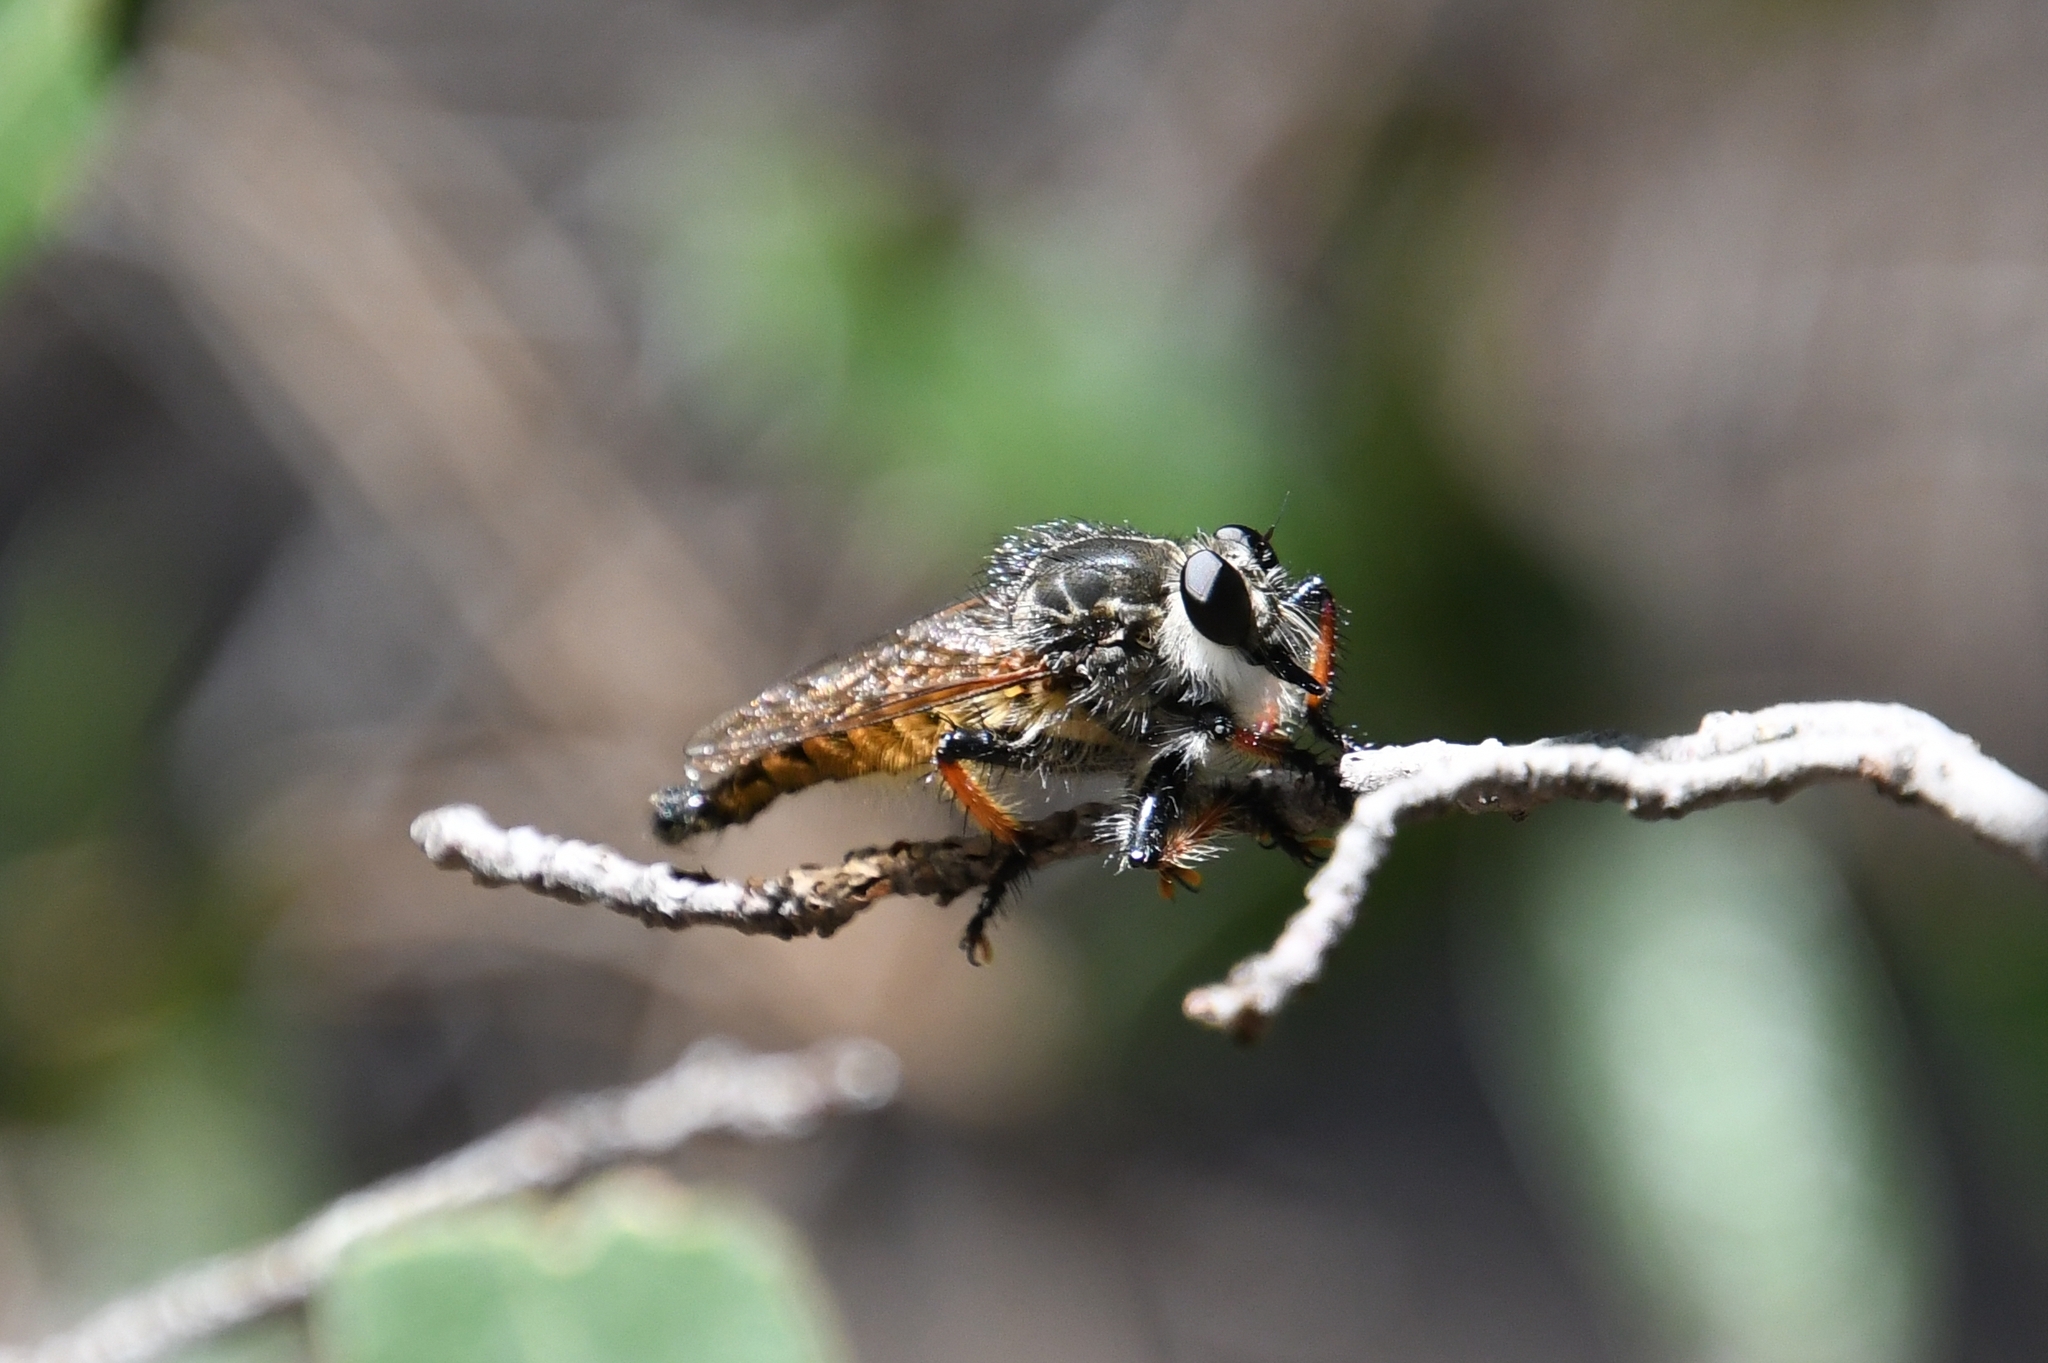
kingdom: Animalia
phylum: Arthropoda
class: Insecta
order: Diptera
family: Asilidae
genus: Promachus
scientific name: Promachus sackeni
